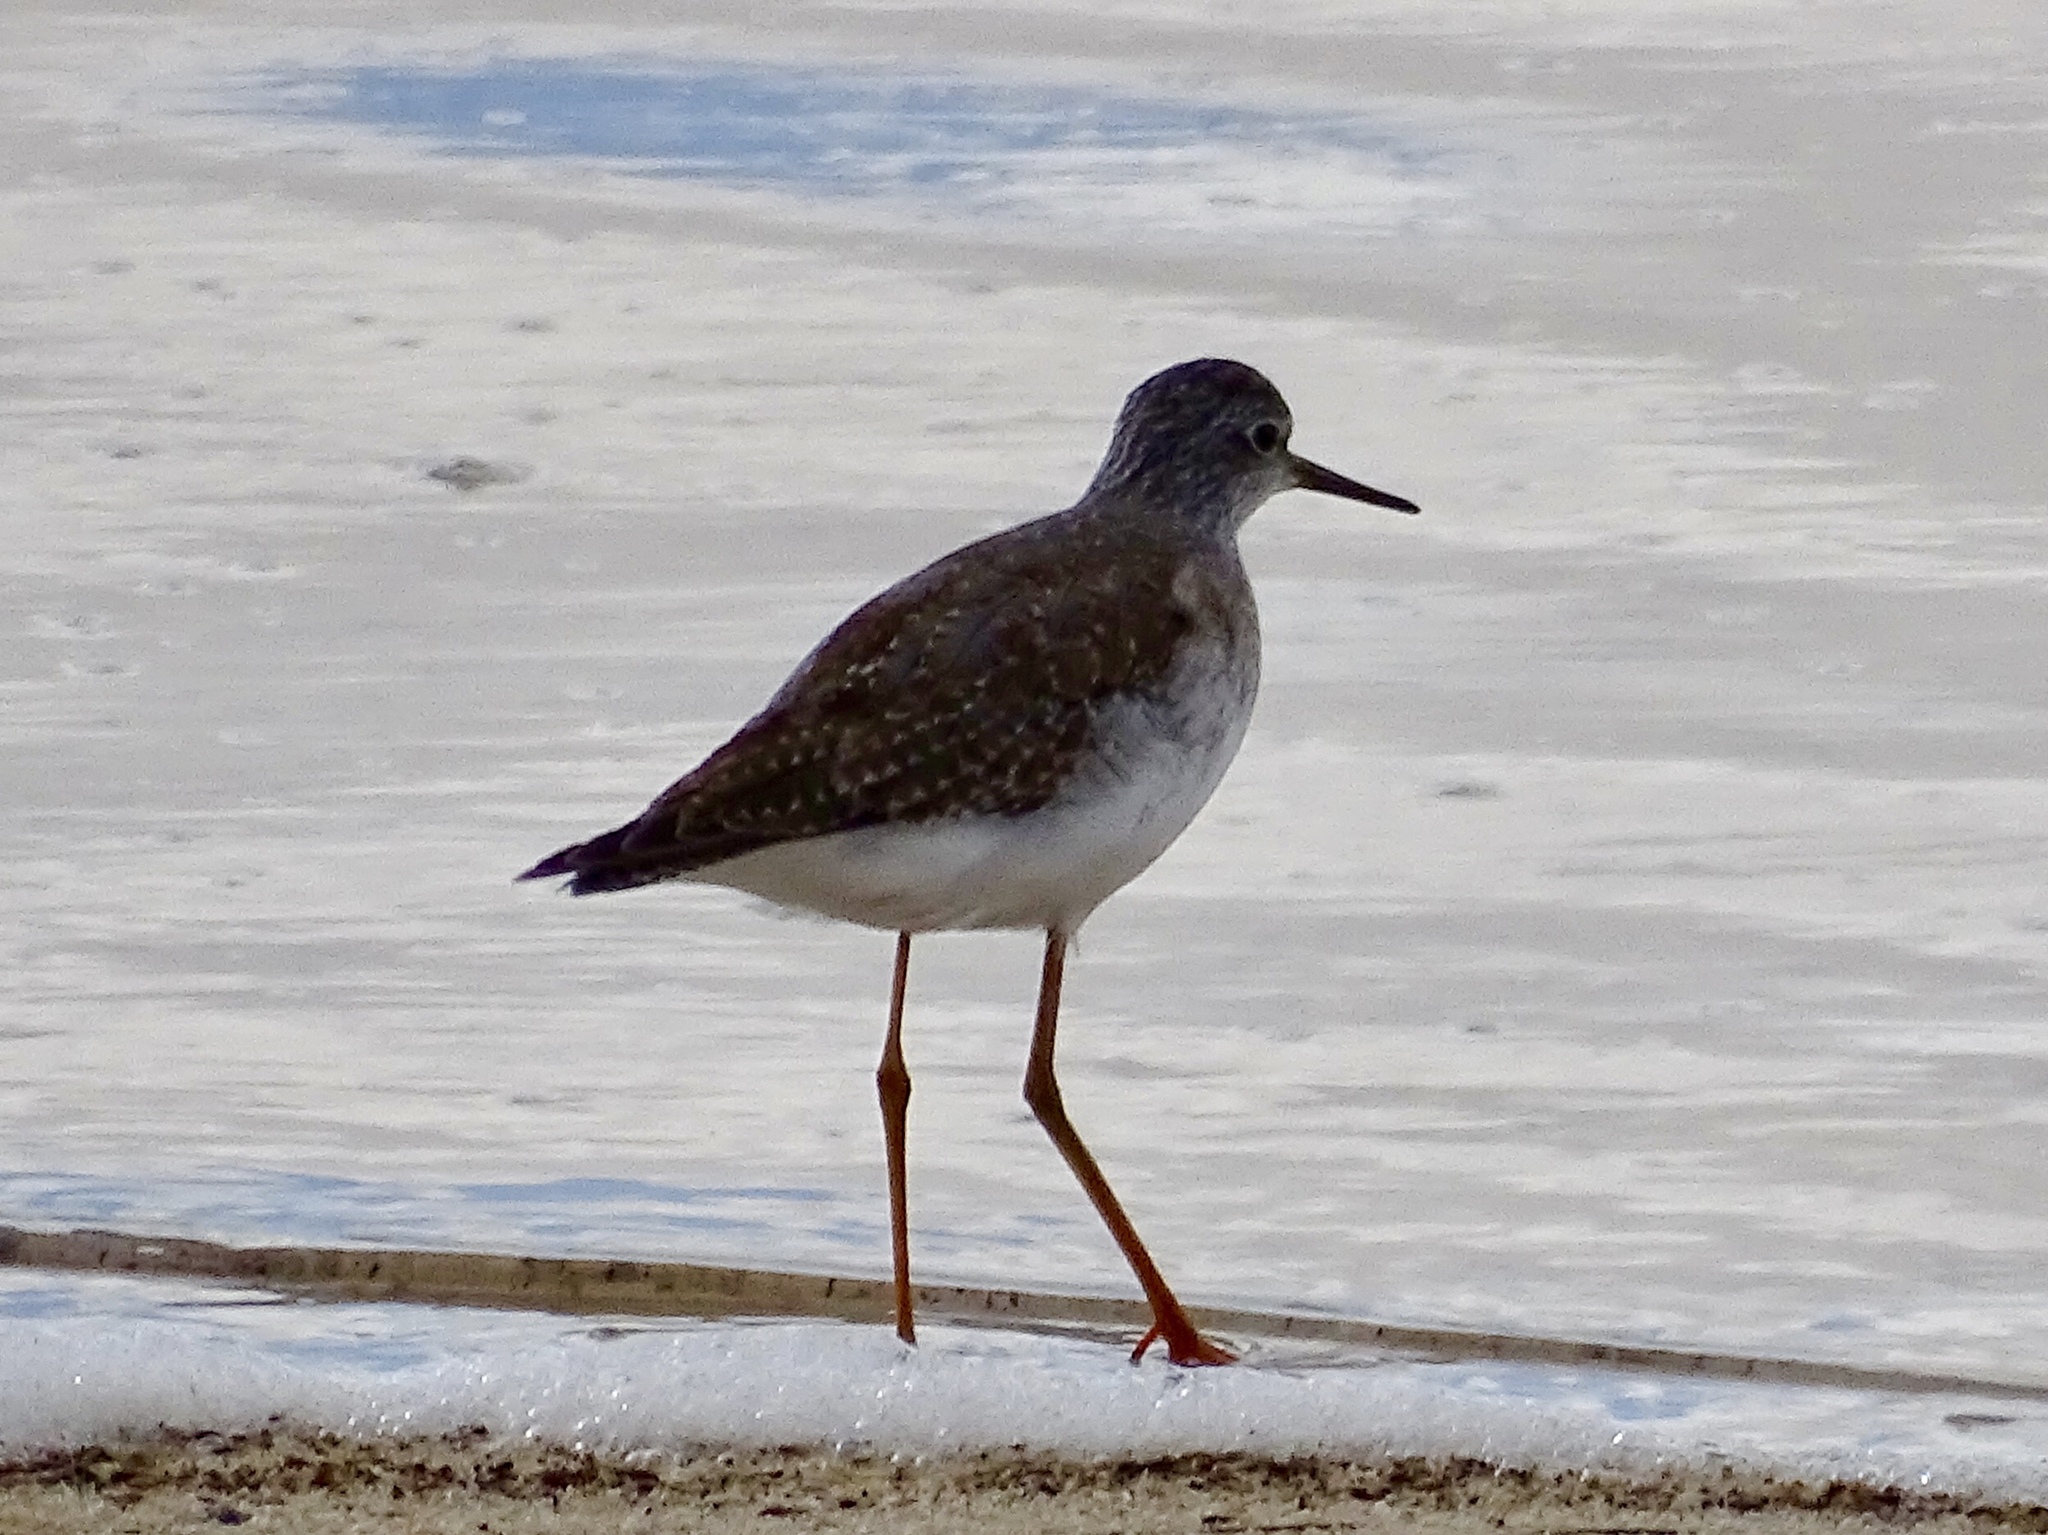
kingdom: Animalia
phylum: Chordata
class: Aves
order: Charadriiformes
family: Scolopacidae
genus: Tringa
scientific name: Tringa flavipes
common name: Lesser yellowlegs
